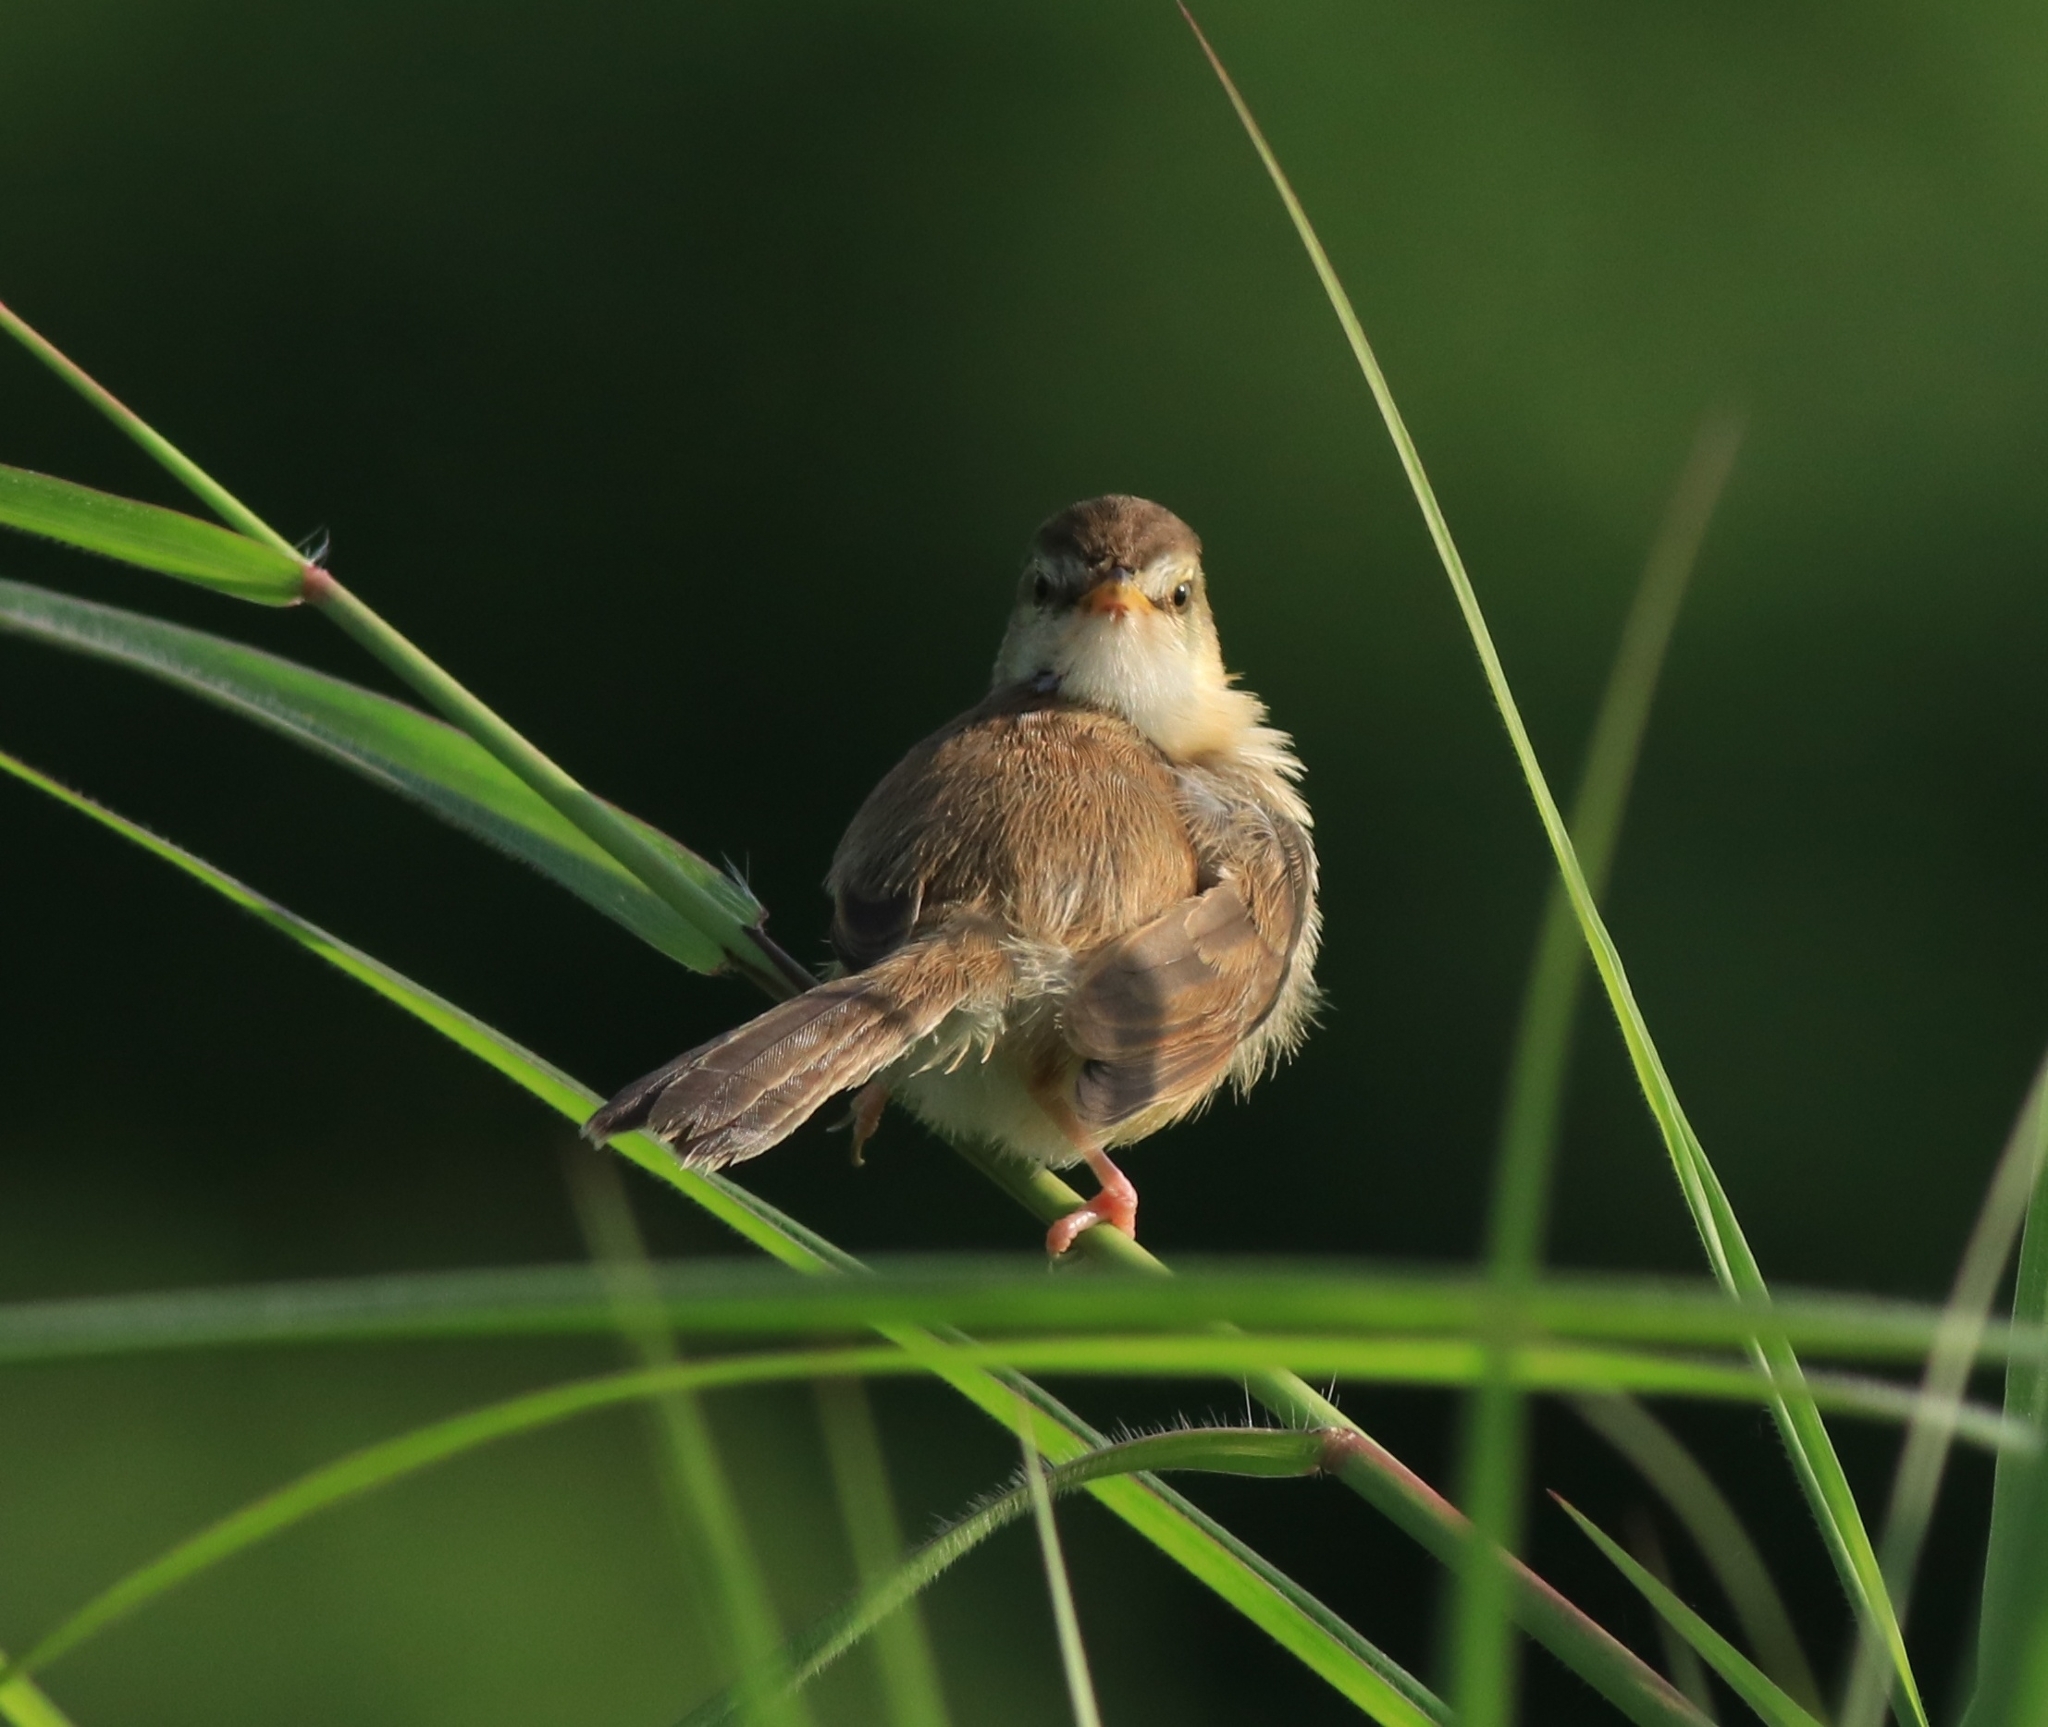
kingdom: Animalia
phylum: Chordata
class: Aves
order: Passeriformes
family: Cisticolidae
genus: Prinia
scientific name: Prinia inornata
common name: Plain prinia
